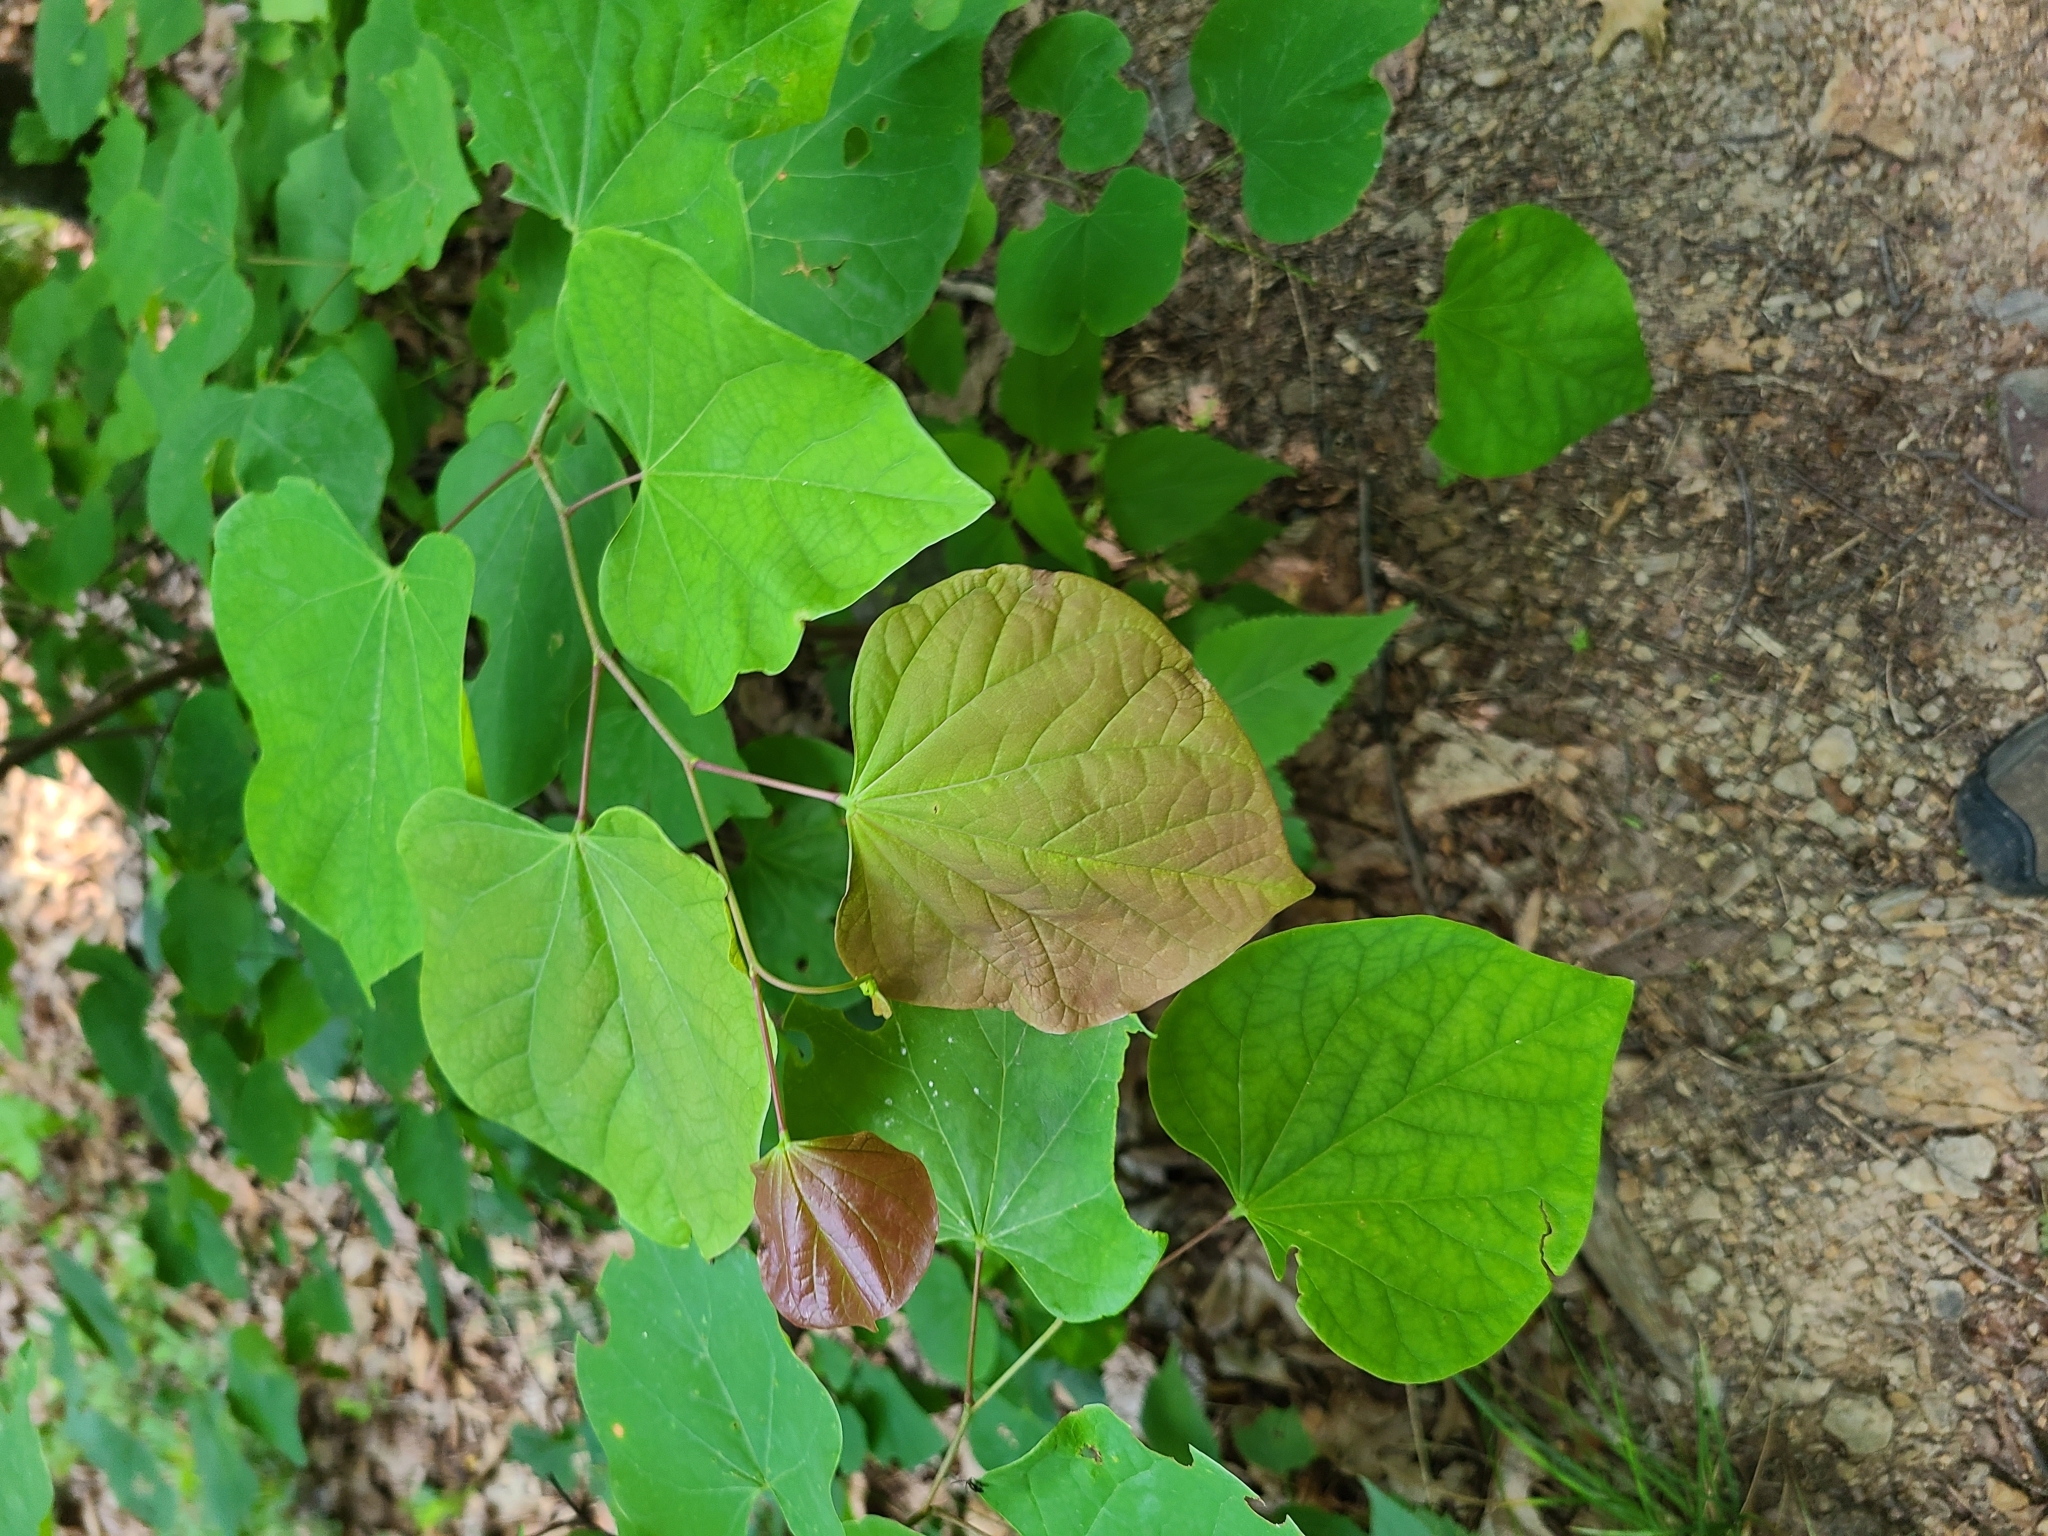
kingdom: Plantae
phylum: Tracheophyta
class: Magnoliopsida
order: Fabales
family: Fabaceae
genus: Cercis
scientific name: Cercis canadensis
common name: Eastern redbud
